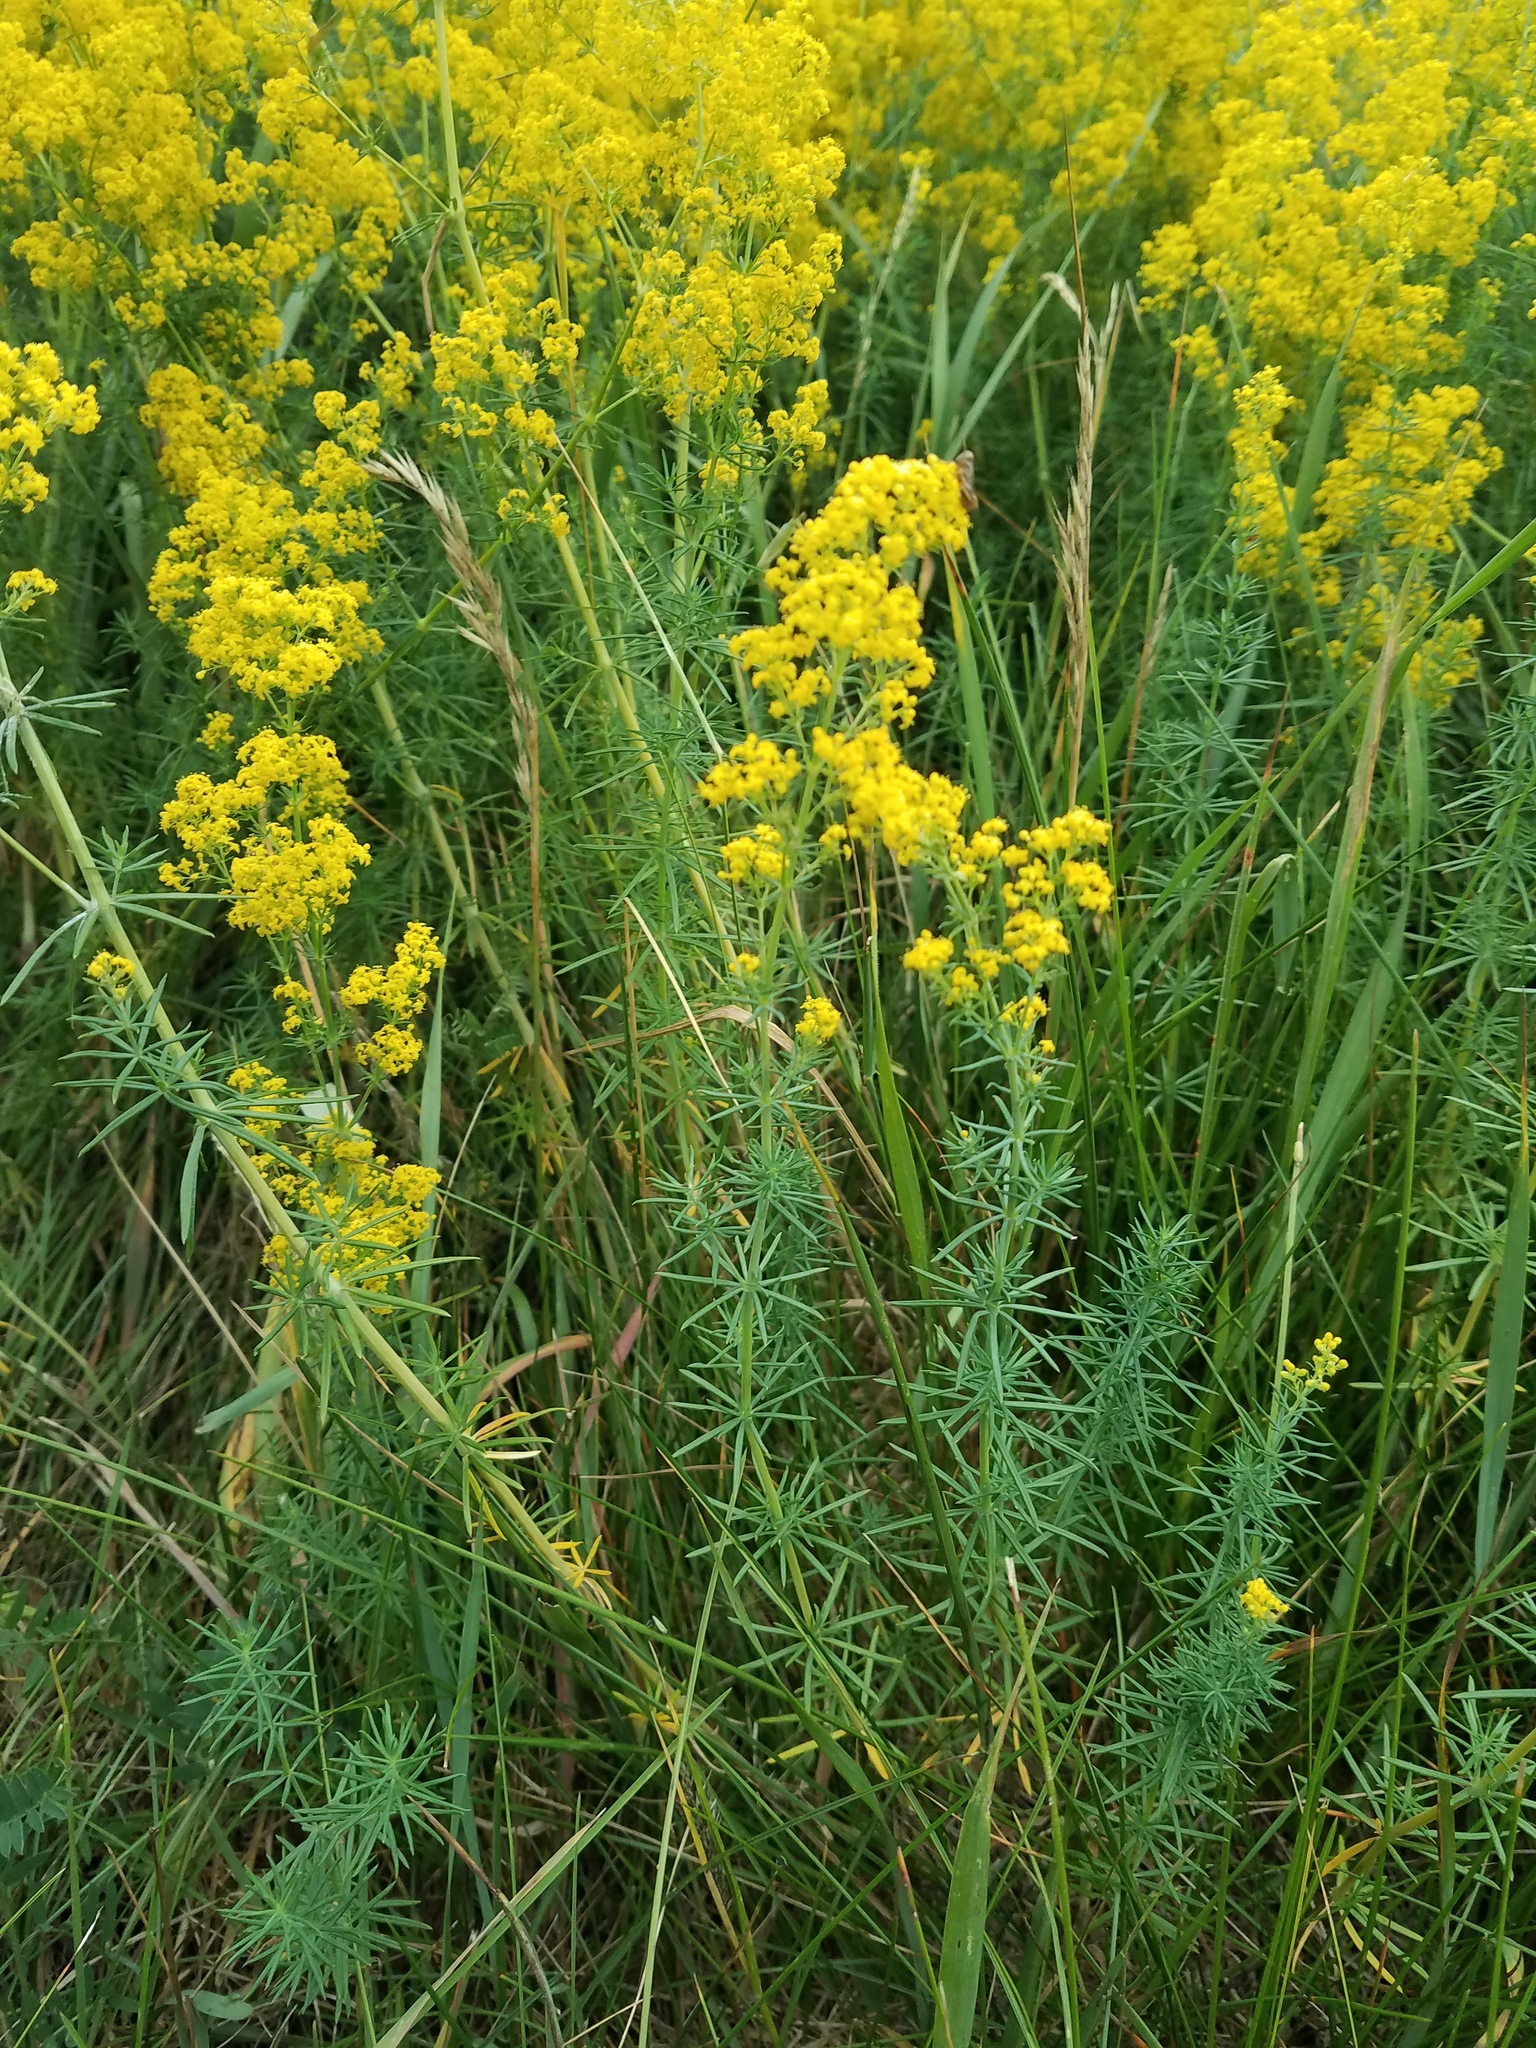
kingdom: Plantae
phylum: Tracheophyta
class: Magnoliopsida
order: Gentianales
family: Rubiaceae
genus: Galium
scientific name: Galium verum
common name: Lady's bedstraw
